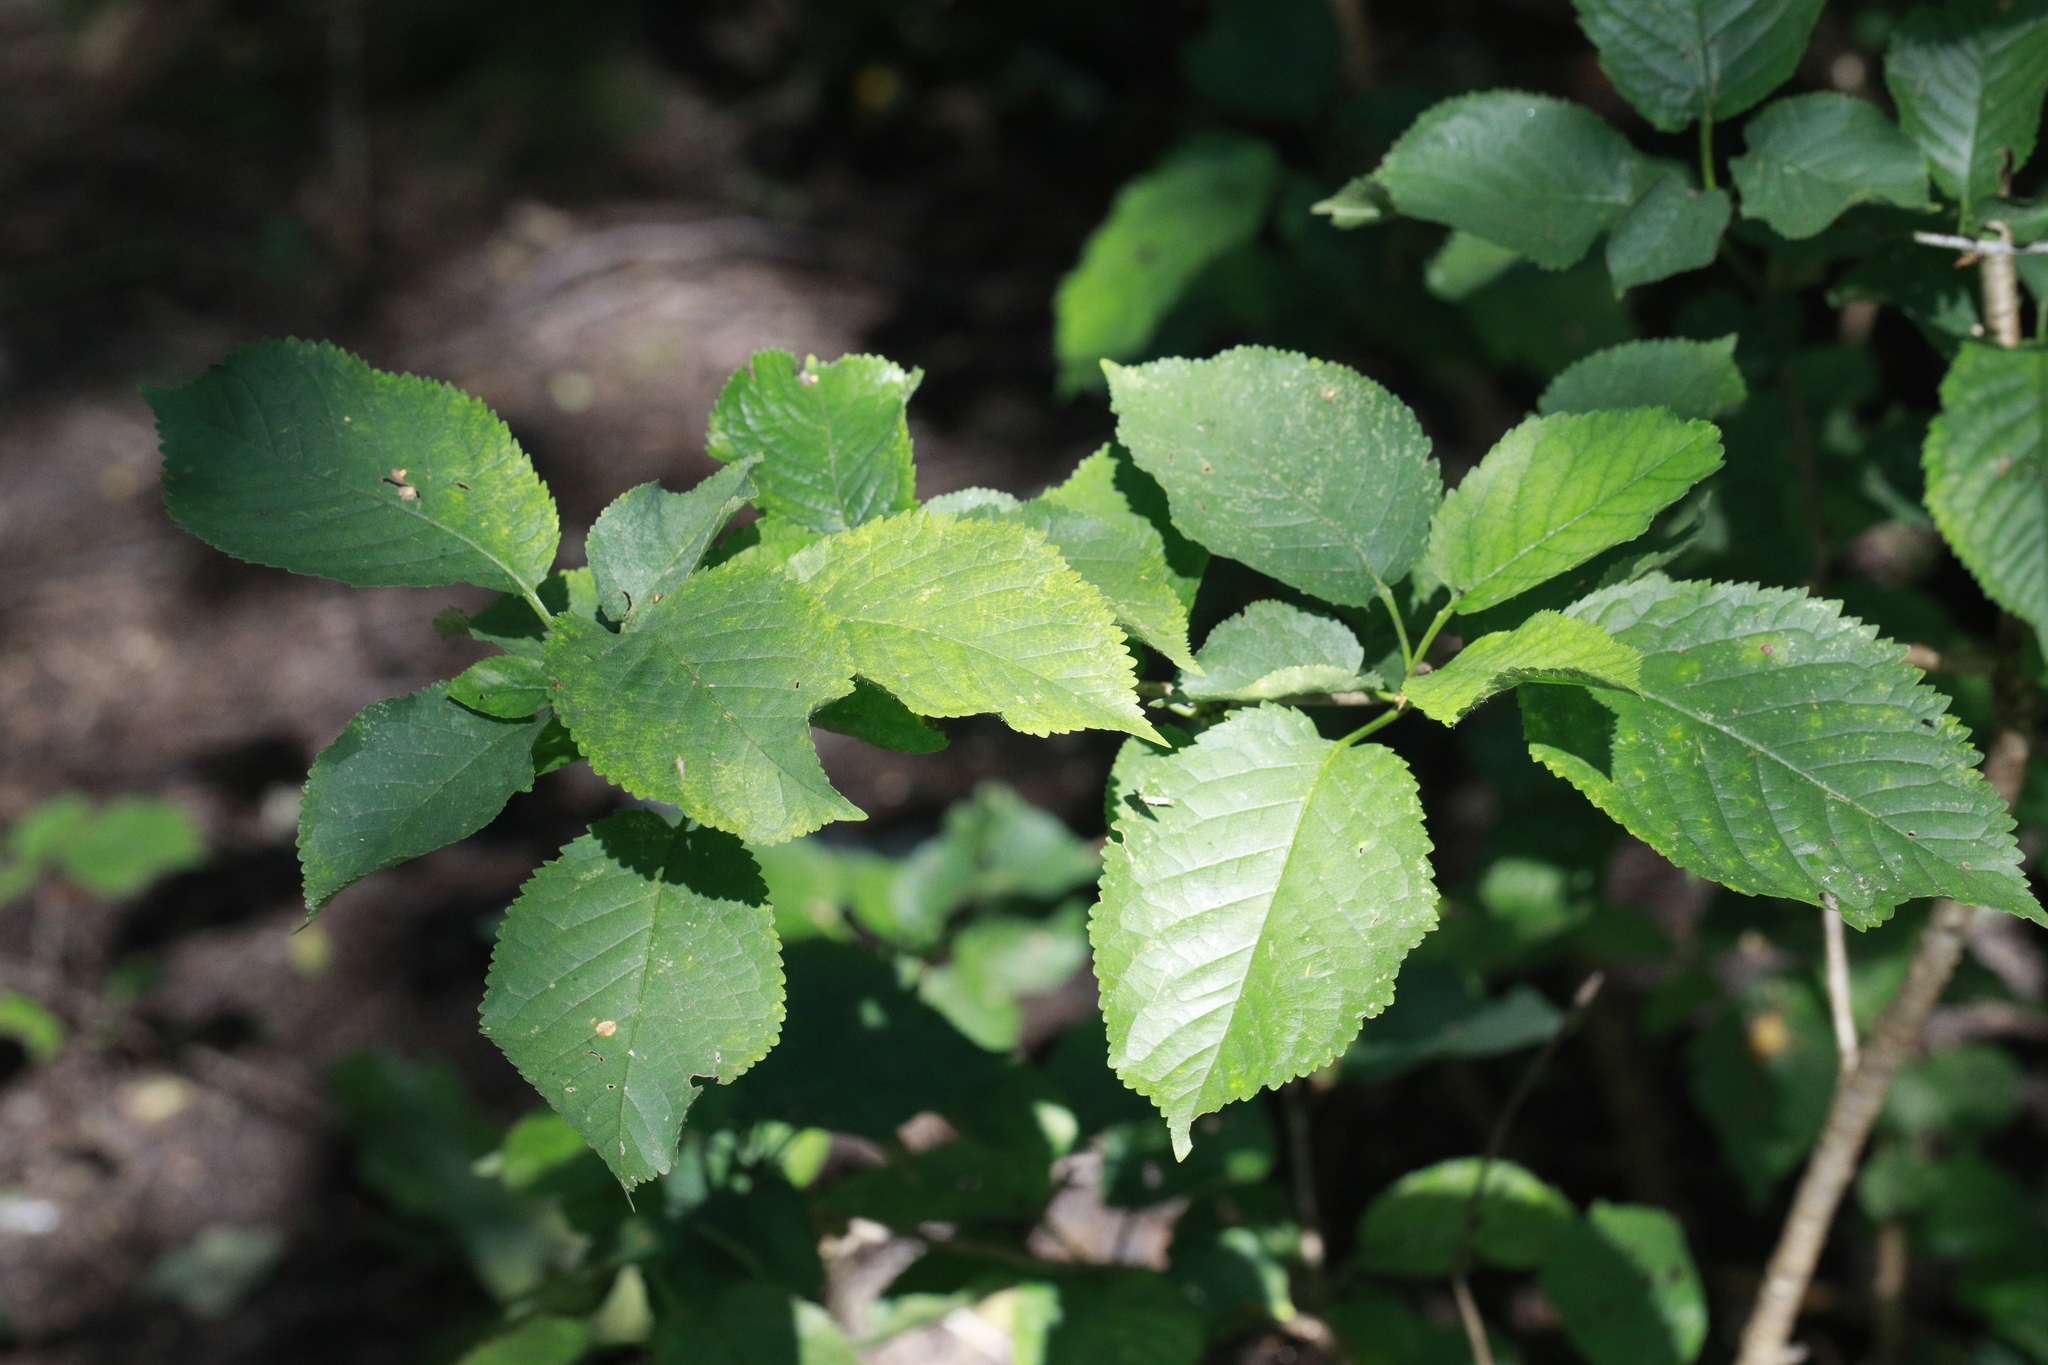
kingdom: Plantae
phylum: Tracheophyta
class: Magnoliopsida
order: Rosales
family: Rosaceae
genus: Prunus
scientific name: Prunus avium
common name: Sweet cherry
